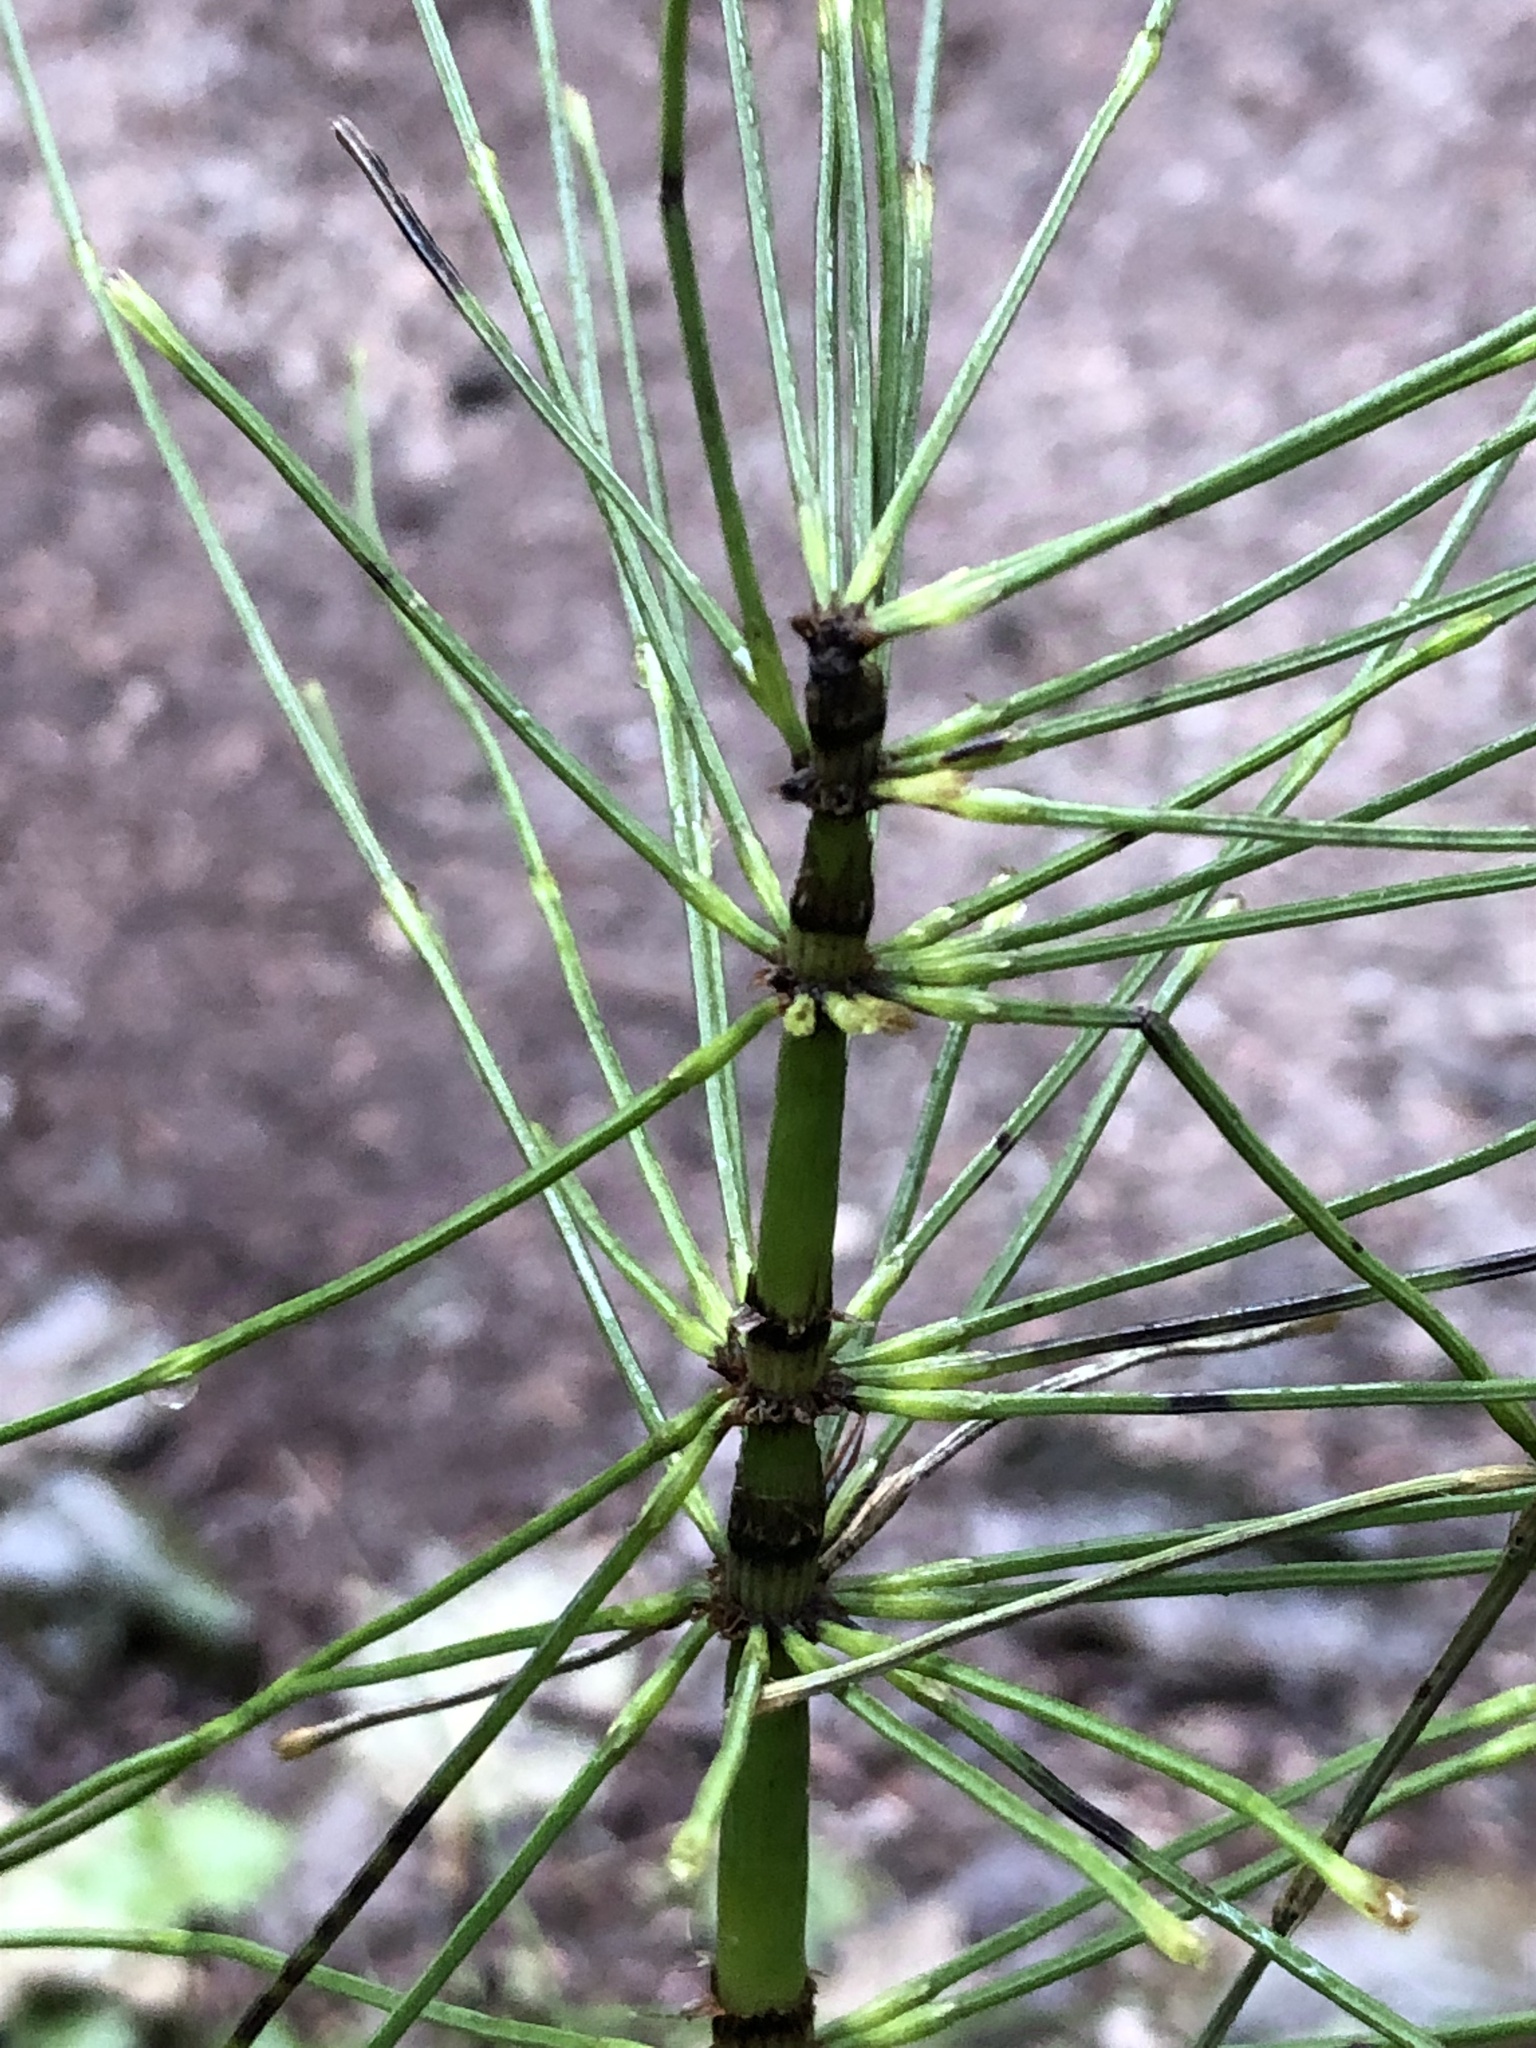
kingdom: Plantae
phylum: Tracheophyta
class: Polypodiopsida
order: Equisetales
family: Equisetaceae
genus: Equisetum
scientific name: Equisetum braunii
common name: Braun's horsetail
